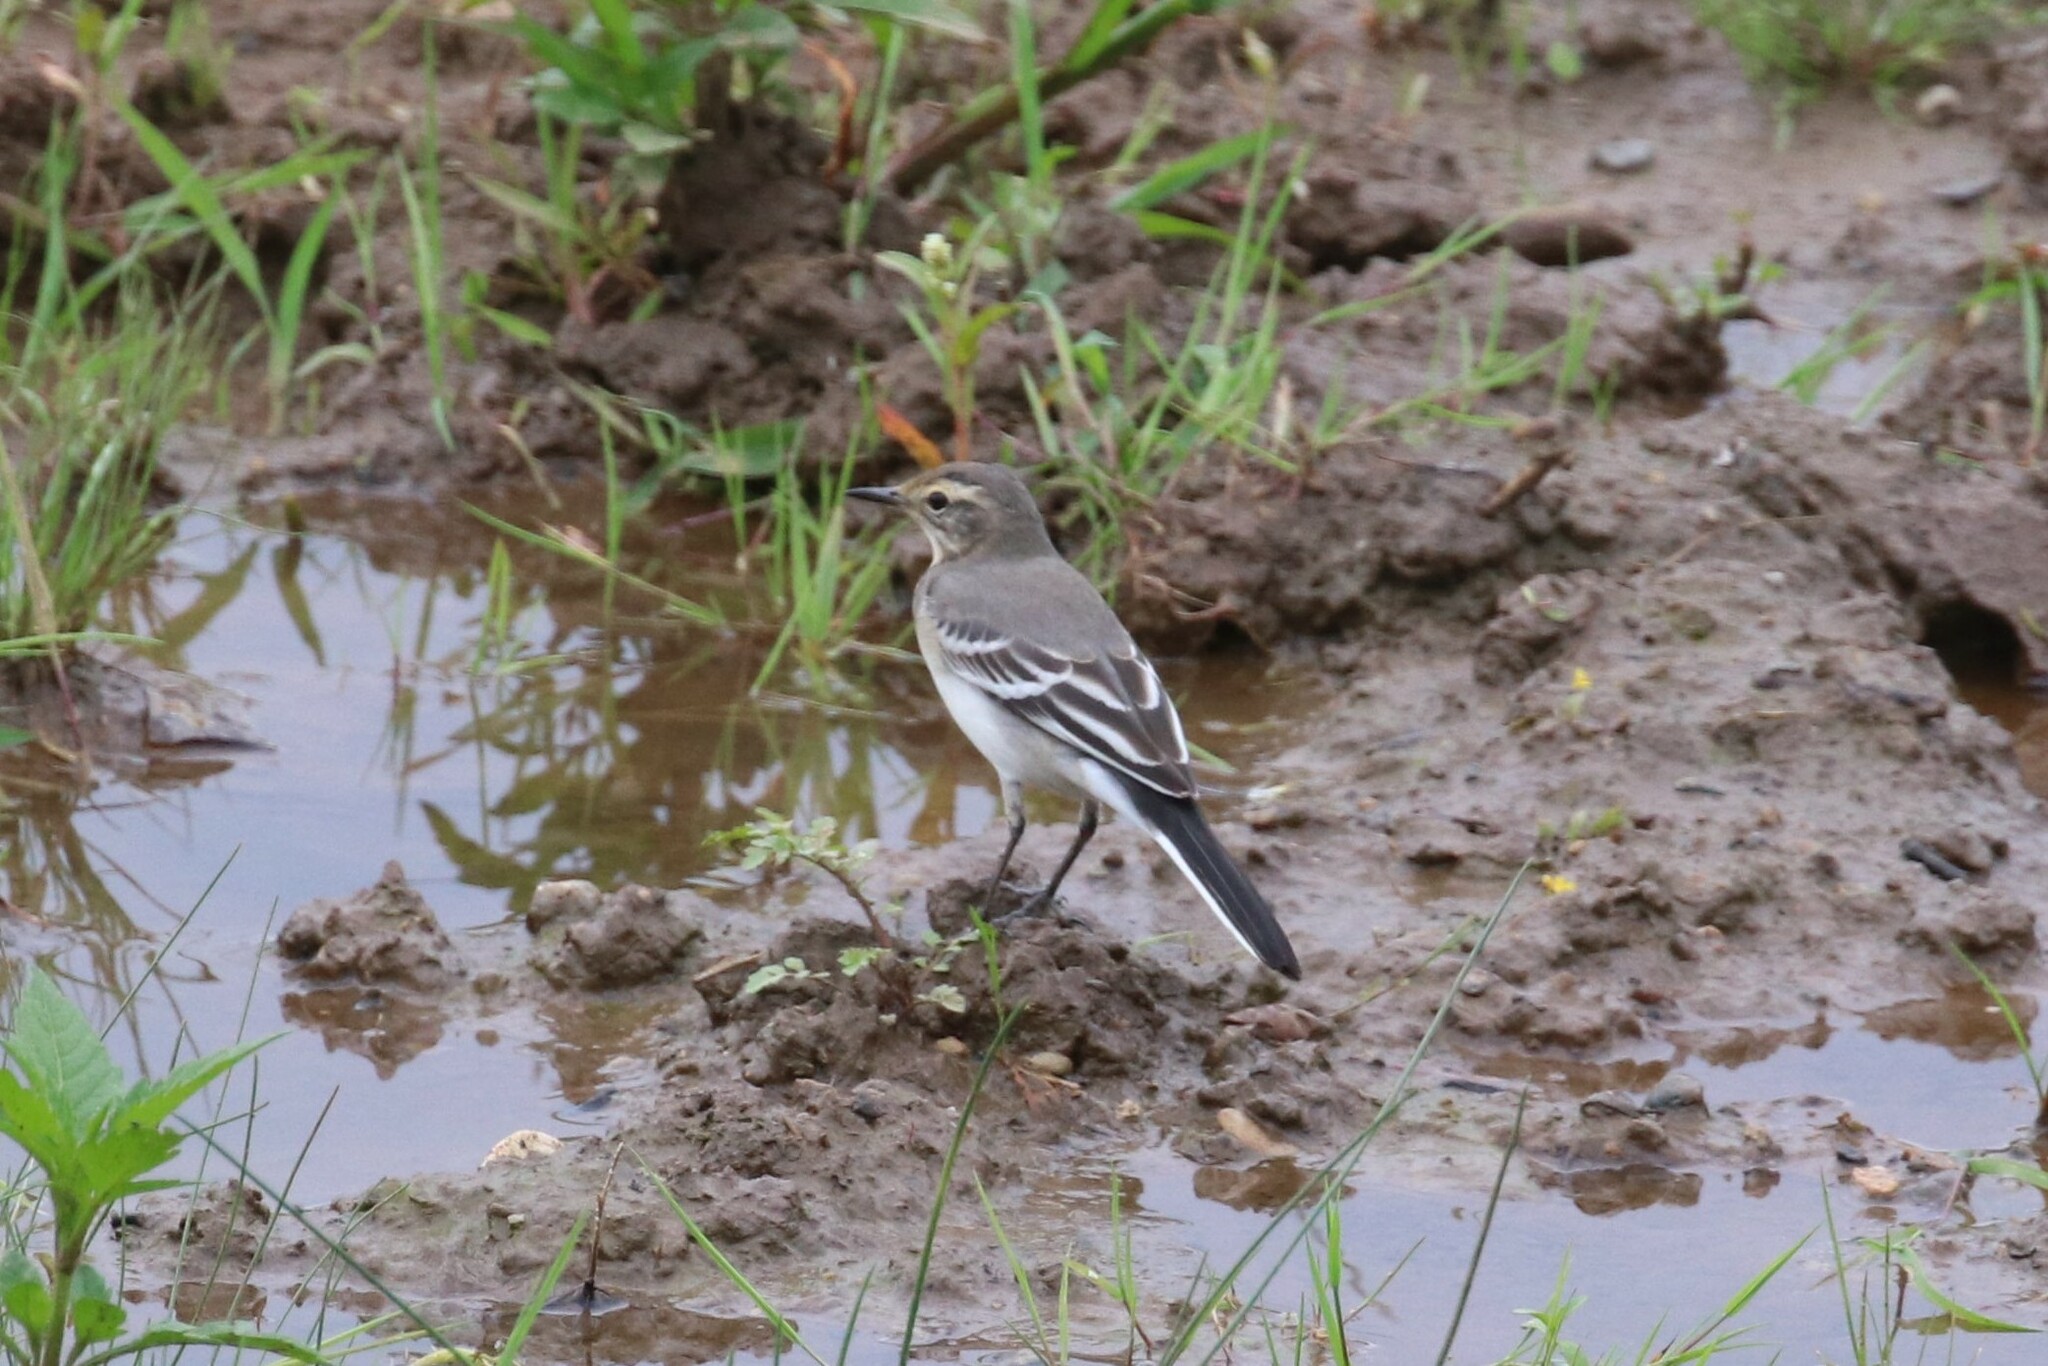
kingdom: Animalia
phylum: Chordata
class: Aves
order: Passeriformes
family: Motacillidae
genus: Motacilla
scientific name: Motacilla alba
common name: White wagtail
